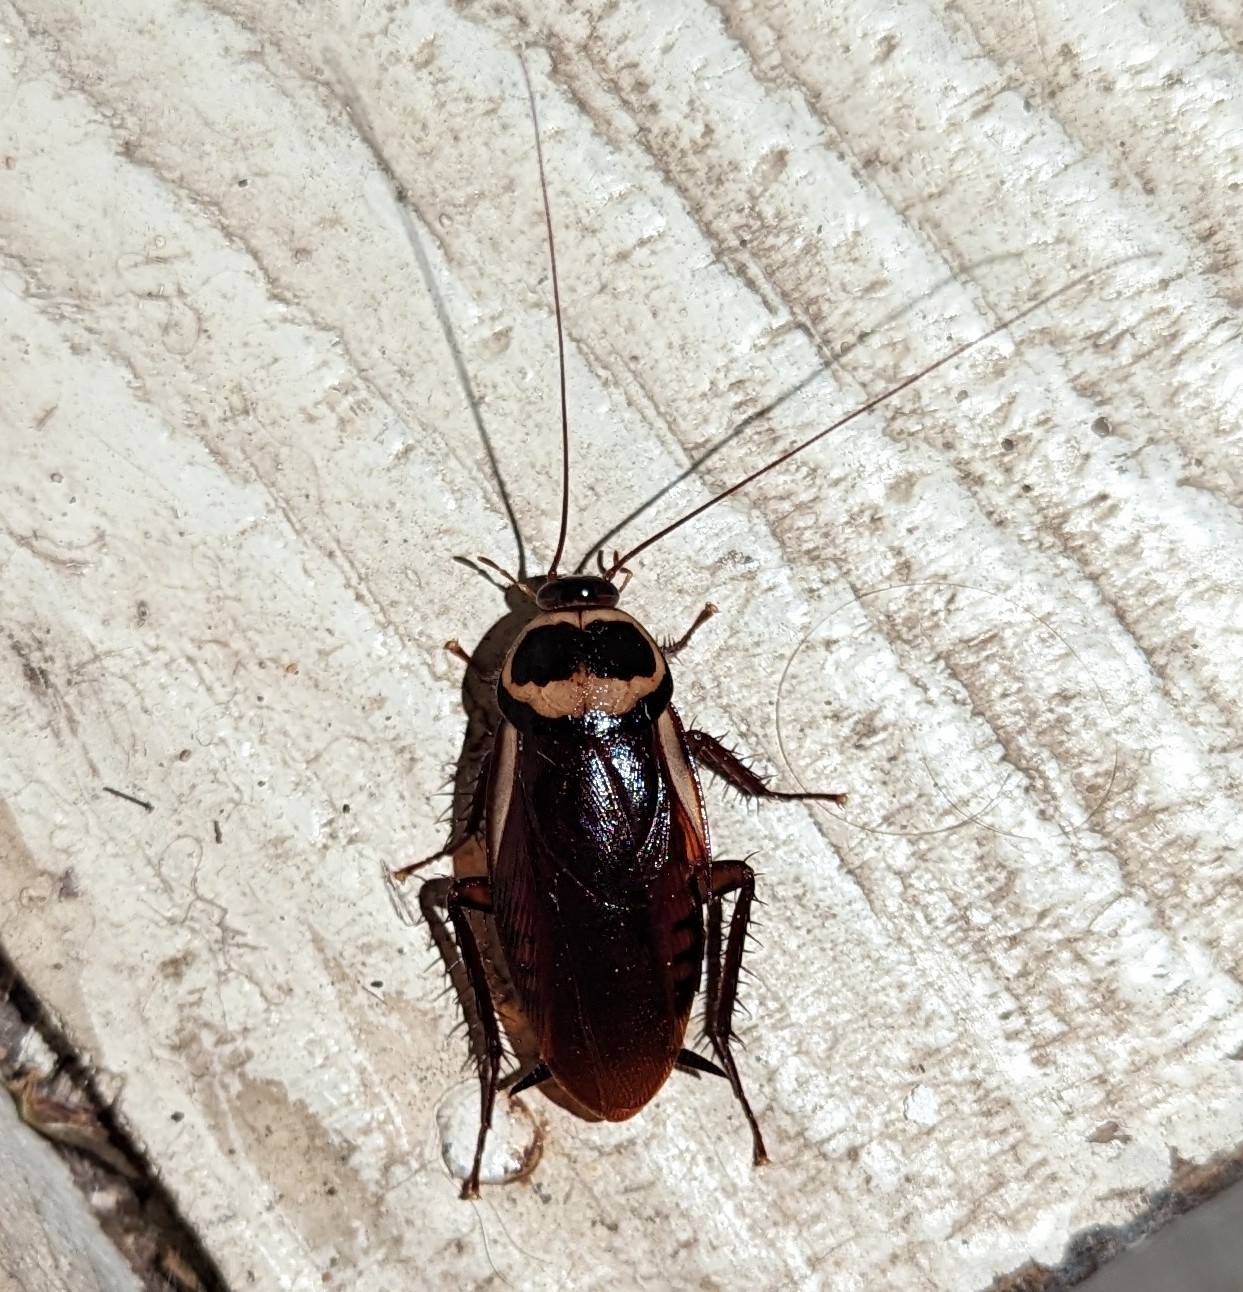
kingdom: Animalia
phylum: Arthropoda
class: Insecta
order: Blattodea
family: Blattidae
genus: Periplaneta
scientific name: Periplaneta australasiae
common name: Australian cockroach
